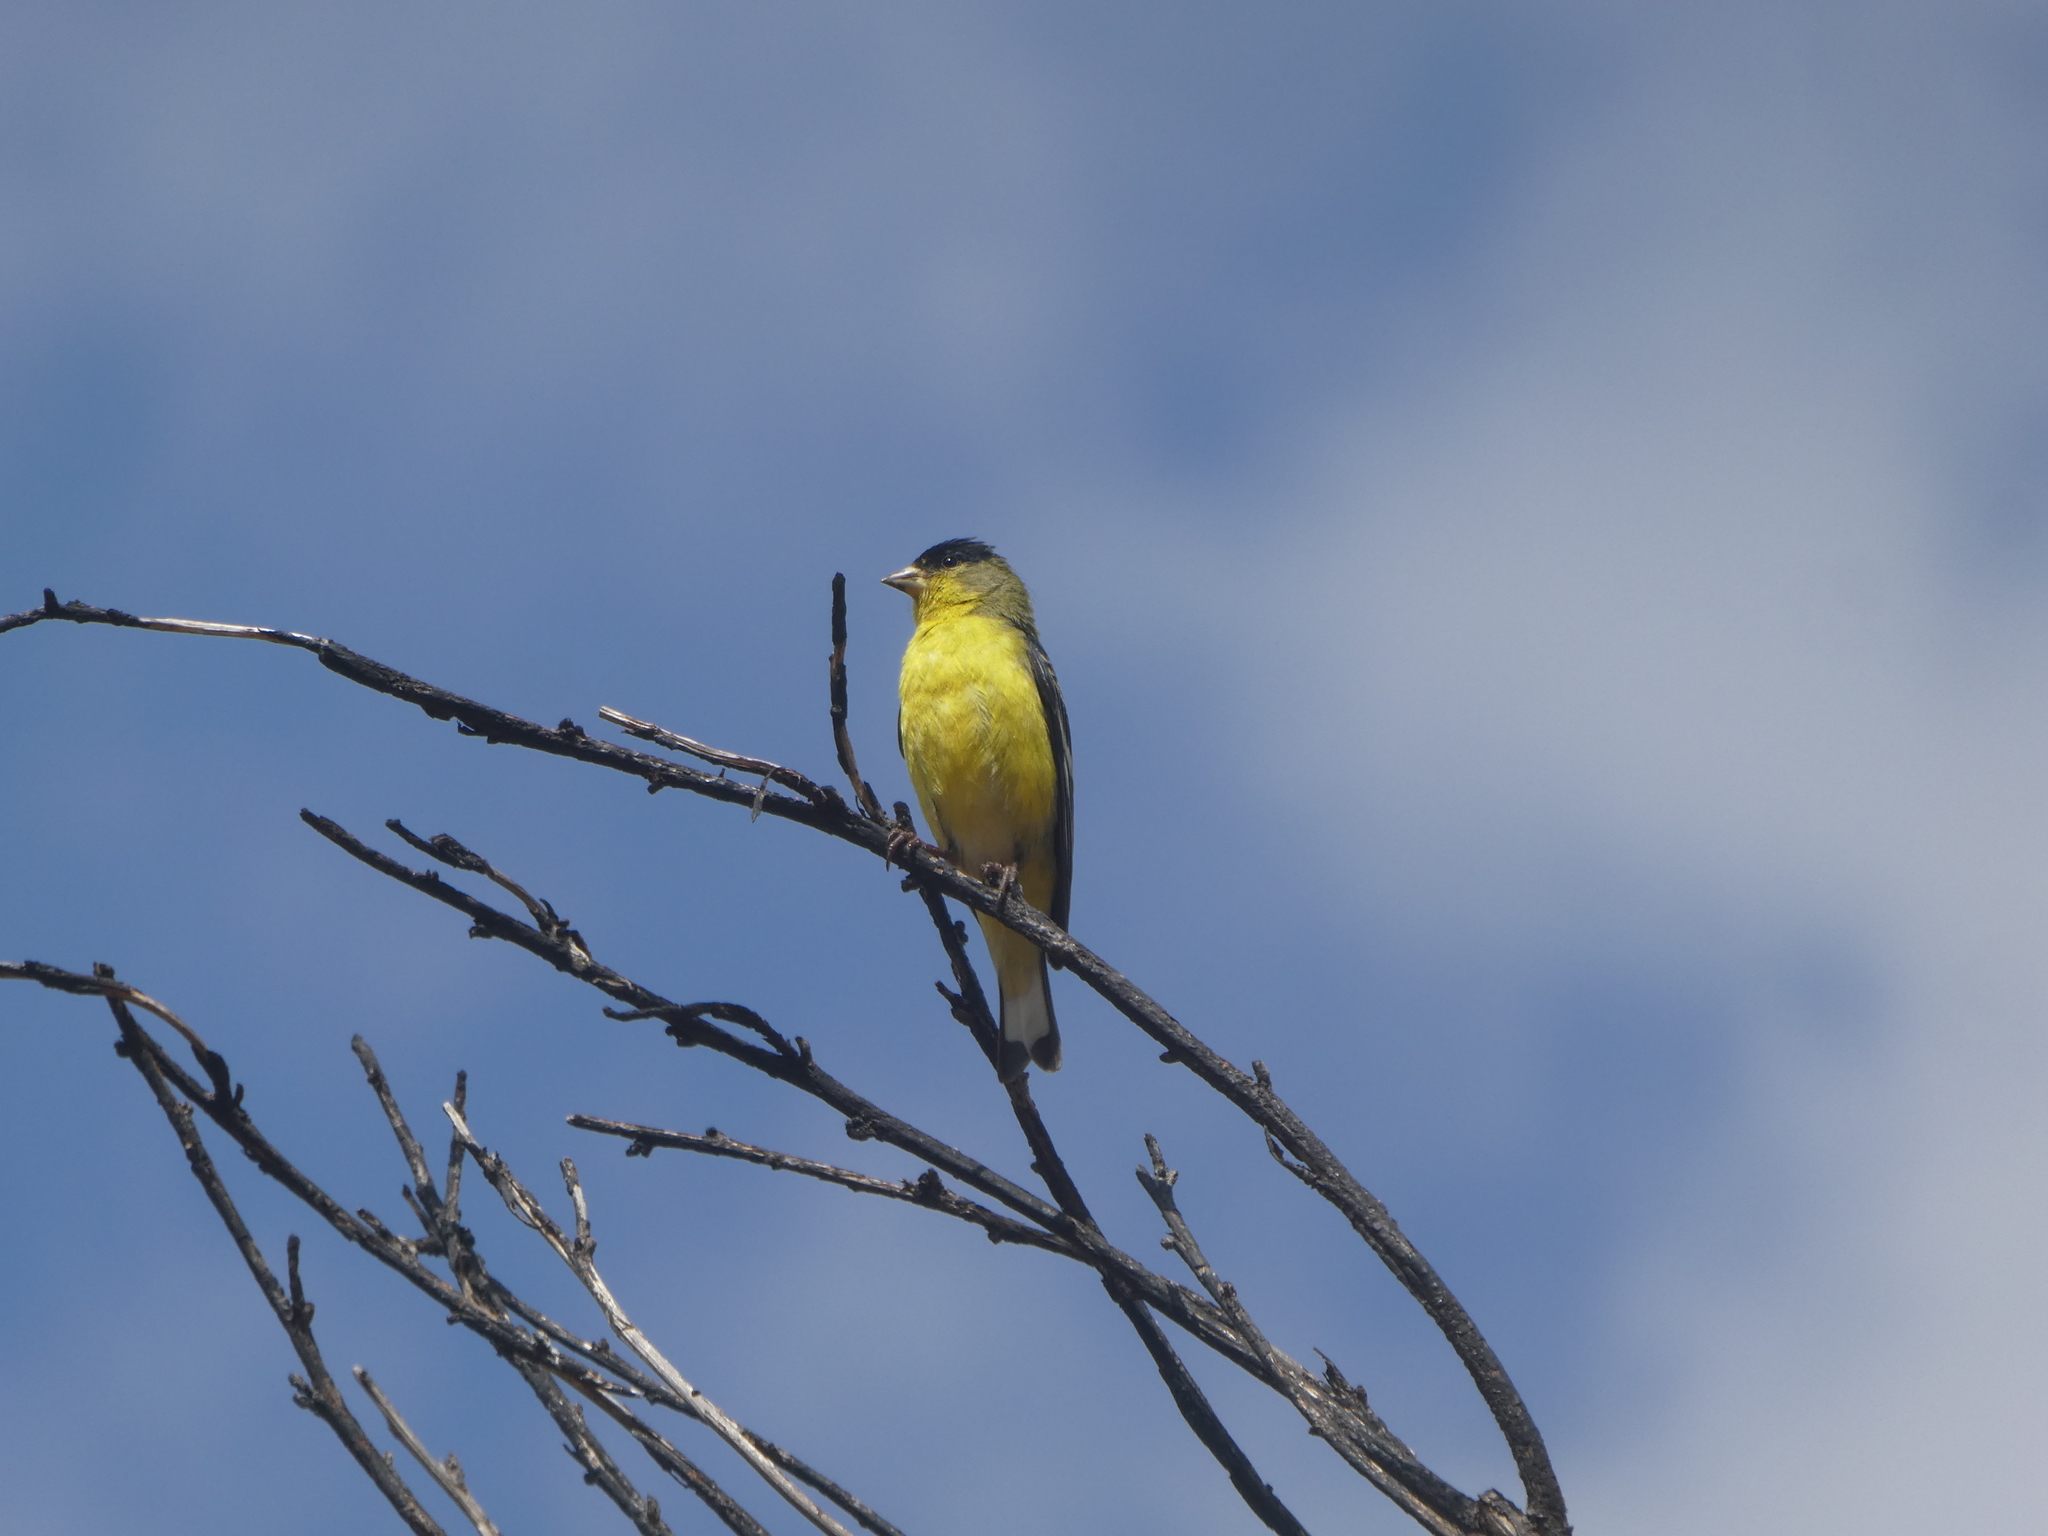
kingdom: Animalia
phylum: Chordata
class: Aves
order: Passeriformes
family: Fringillidae
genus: Spinus
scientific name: Spinus psaltria
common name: Lesser goldfinch
